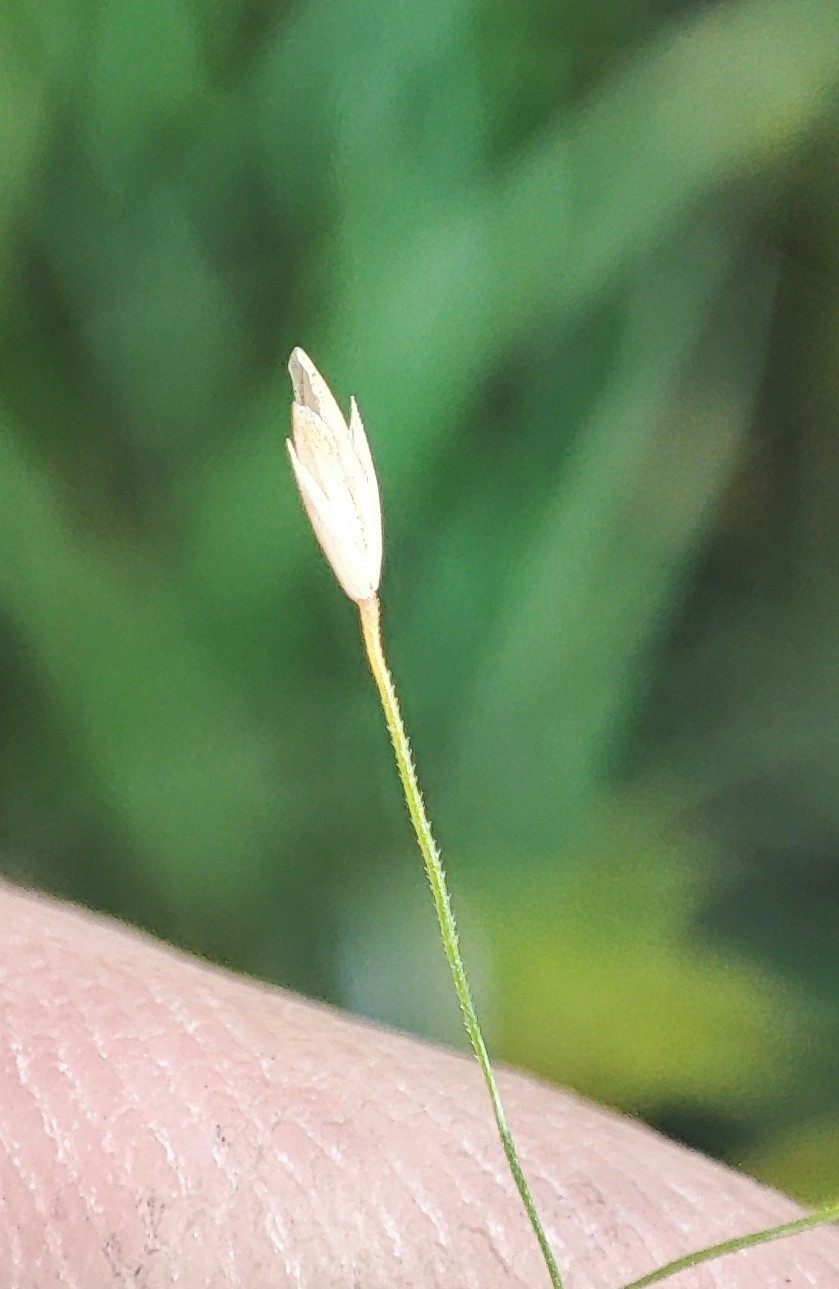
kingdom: Plantae
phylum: Tracheophyta
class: Liliopsida
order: Poales
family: Poaceae
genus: Poa
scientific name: Poa palustris
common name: Swamp meadow-grass
